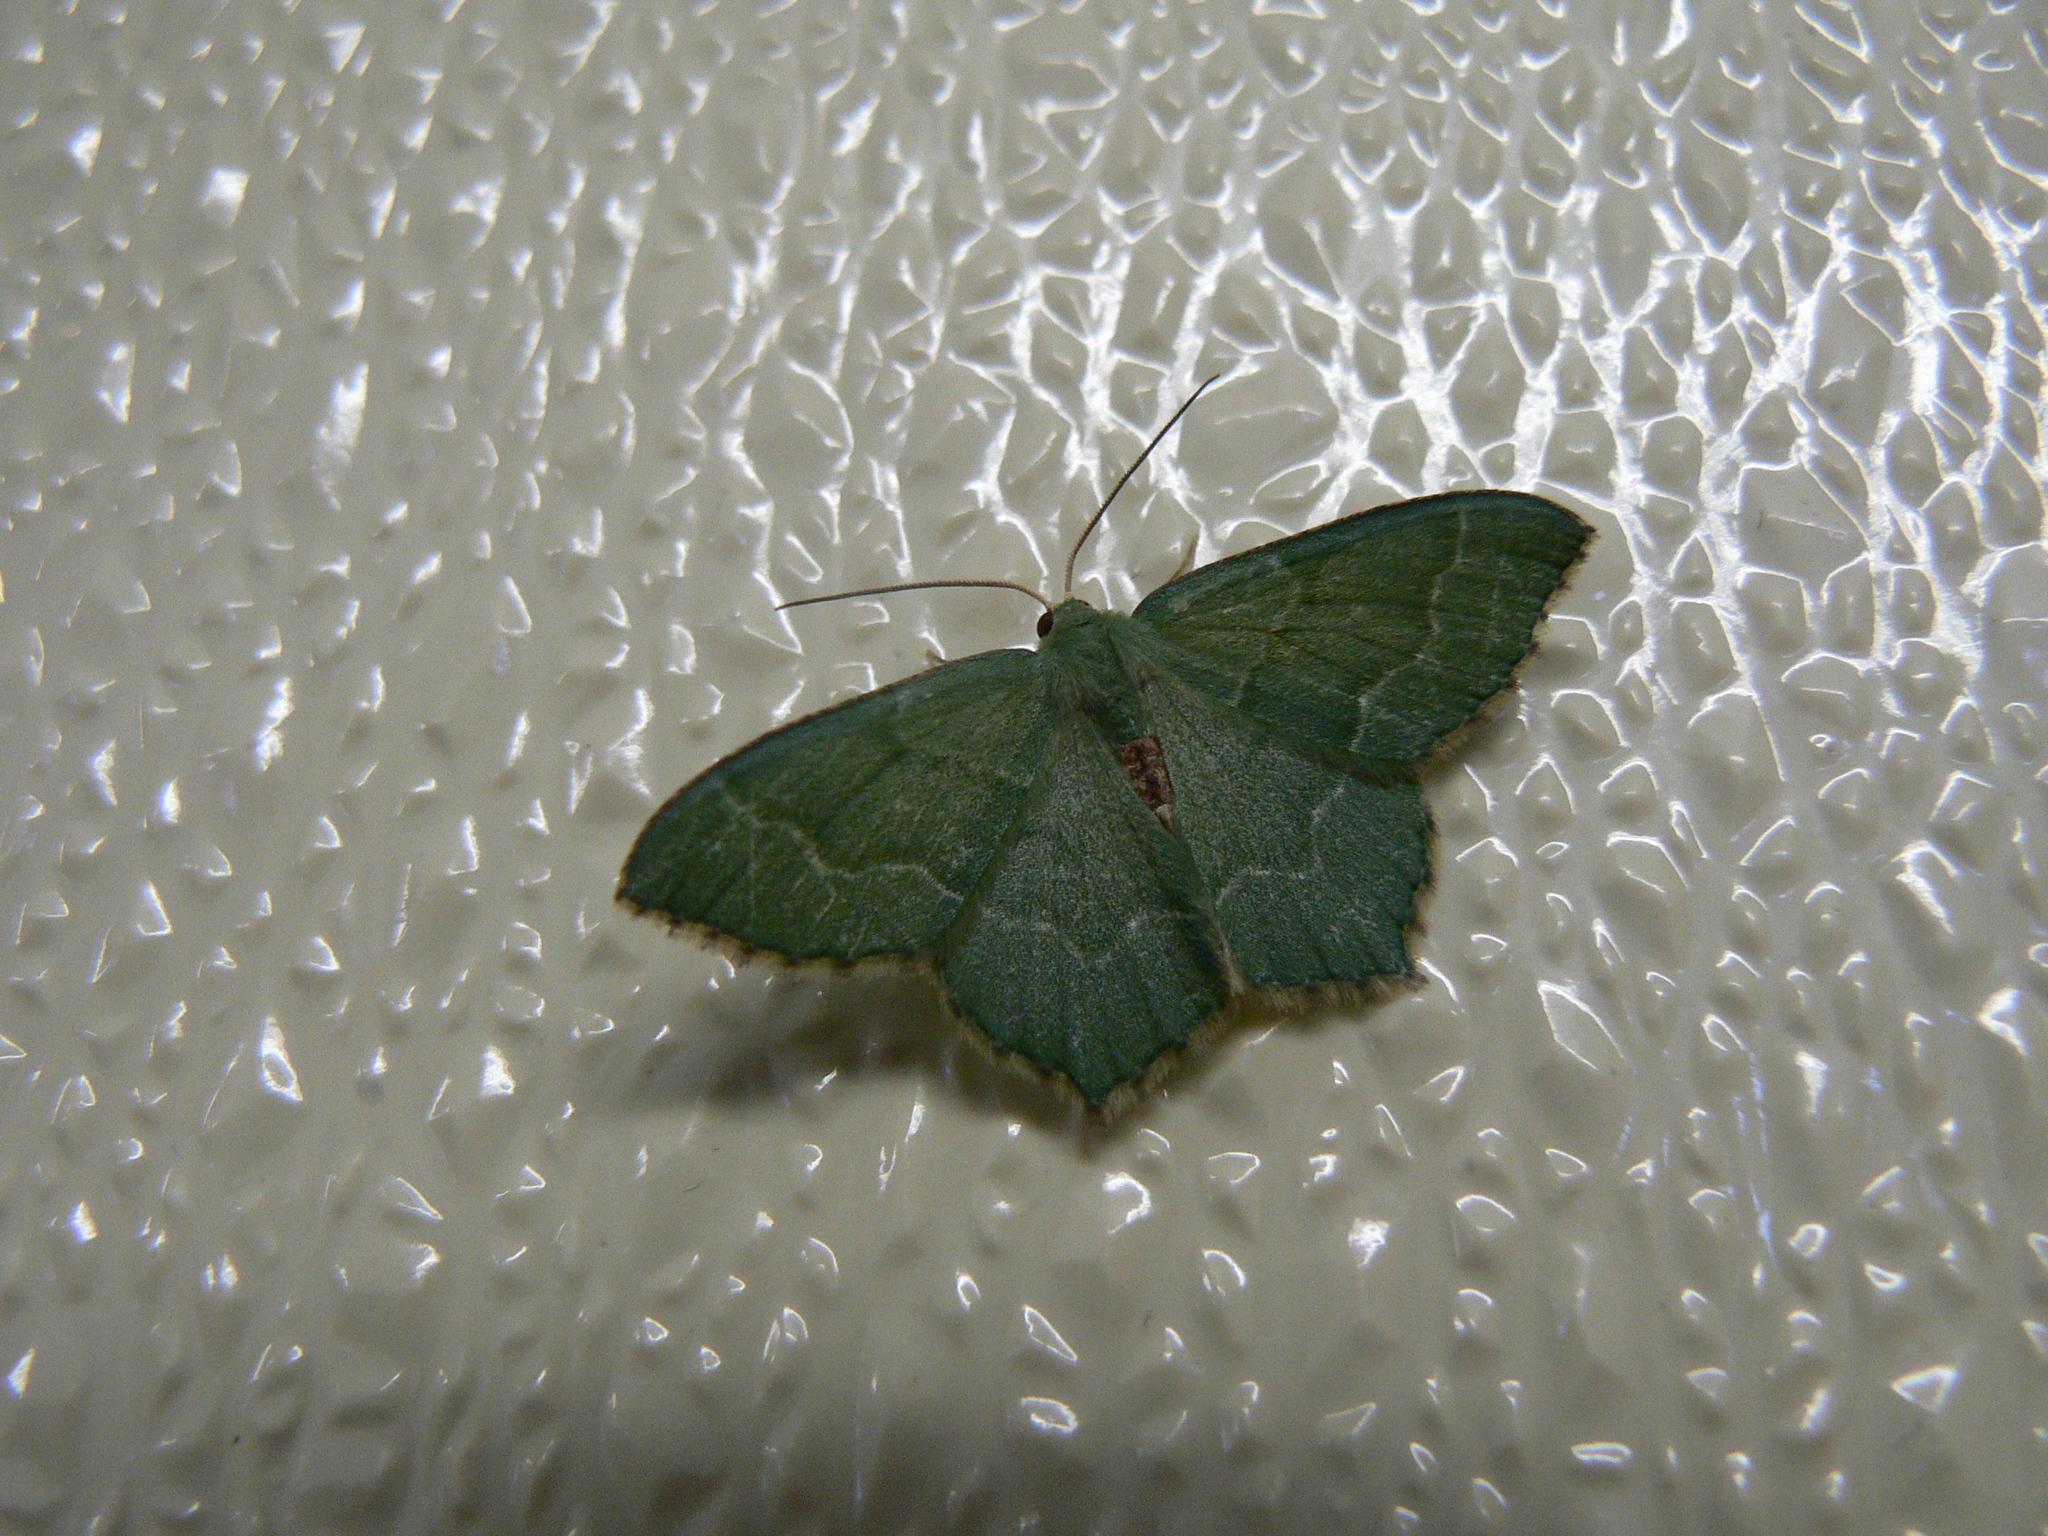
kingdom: Animalia
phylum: Arthropoda
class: Insecta
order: Lepidoptera
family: Geometridae
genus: Hemithea
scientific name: Hemithea aestivaria
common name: Common emerald
